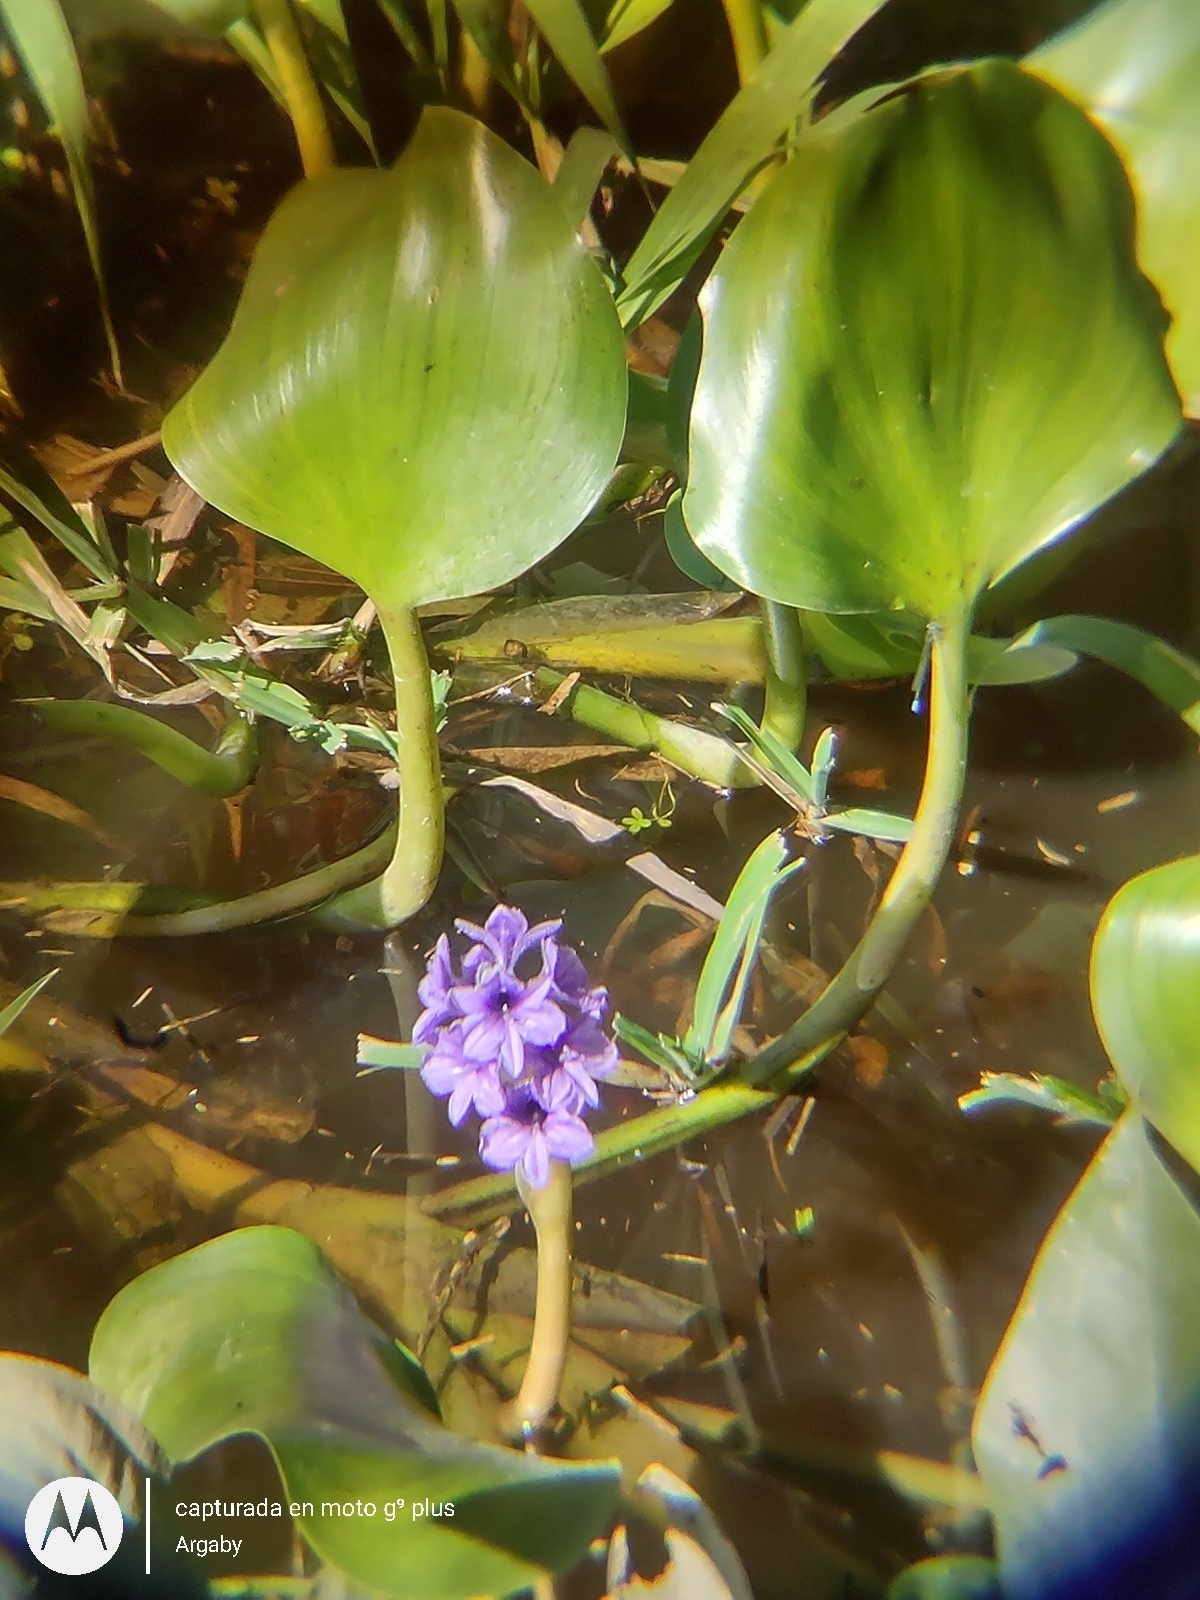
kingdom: Plantae
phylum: Tracheophyta
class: Liliopsida
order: Commelinales
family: Pontederiaceae
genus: Pontederia
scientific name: Pontederia azurea
